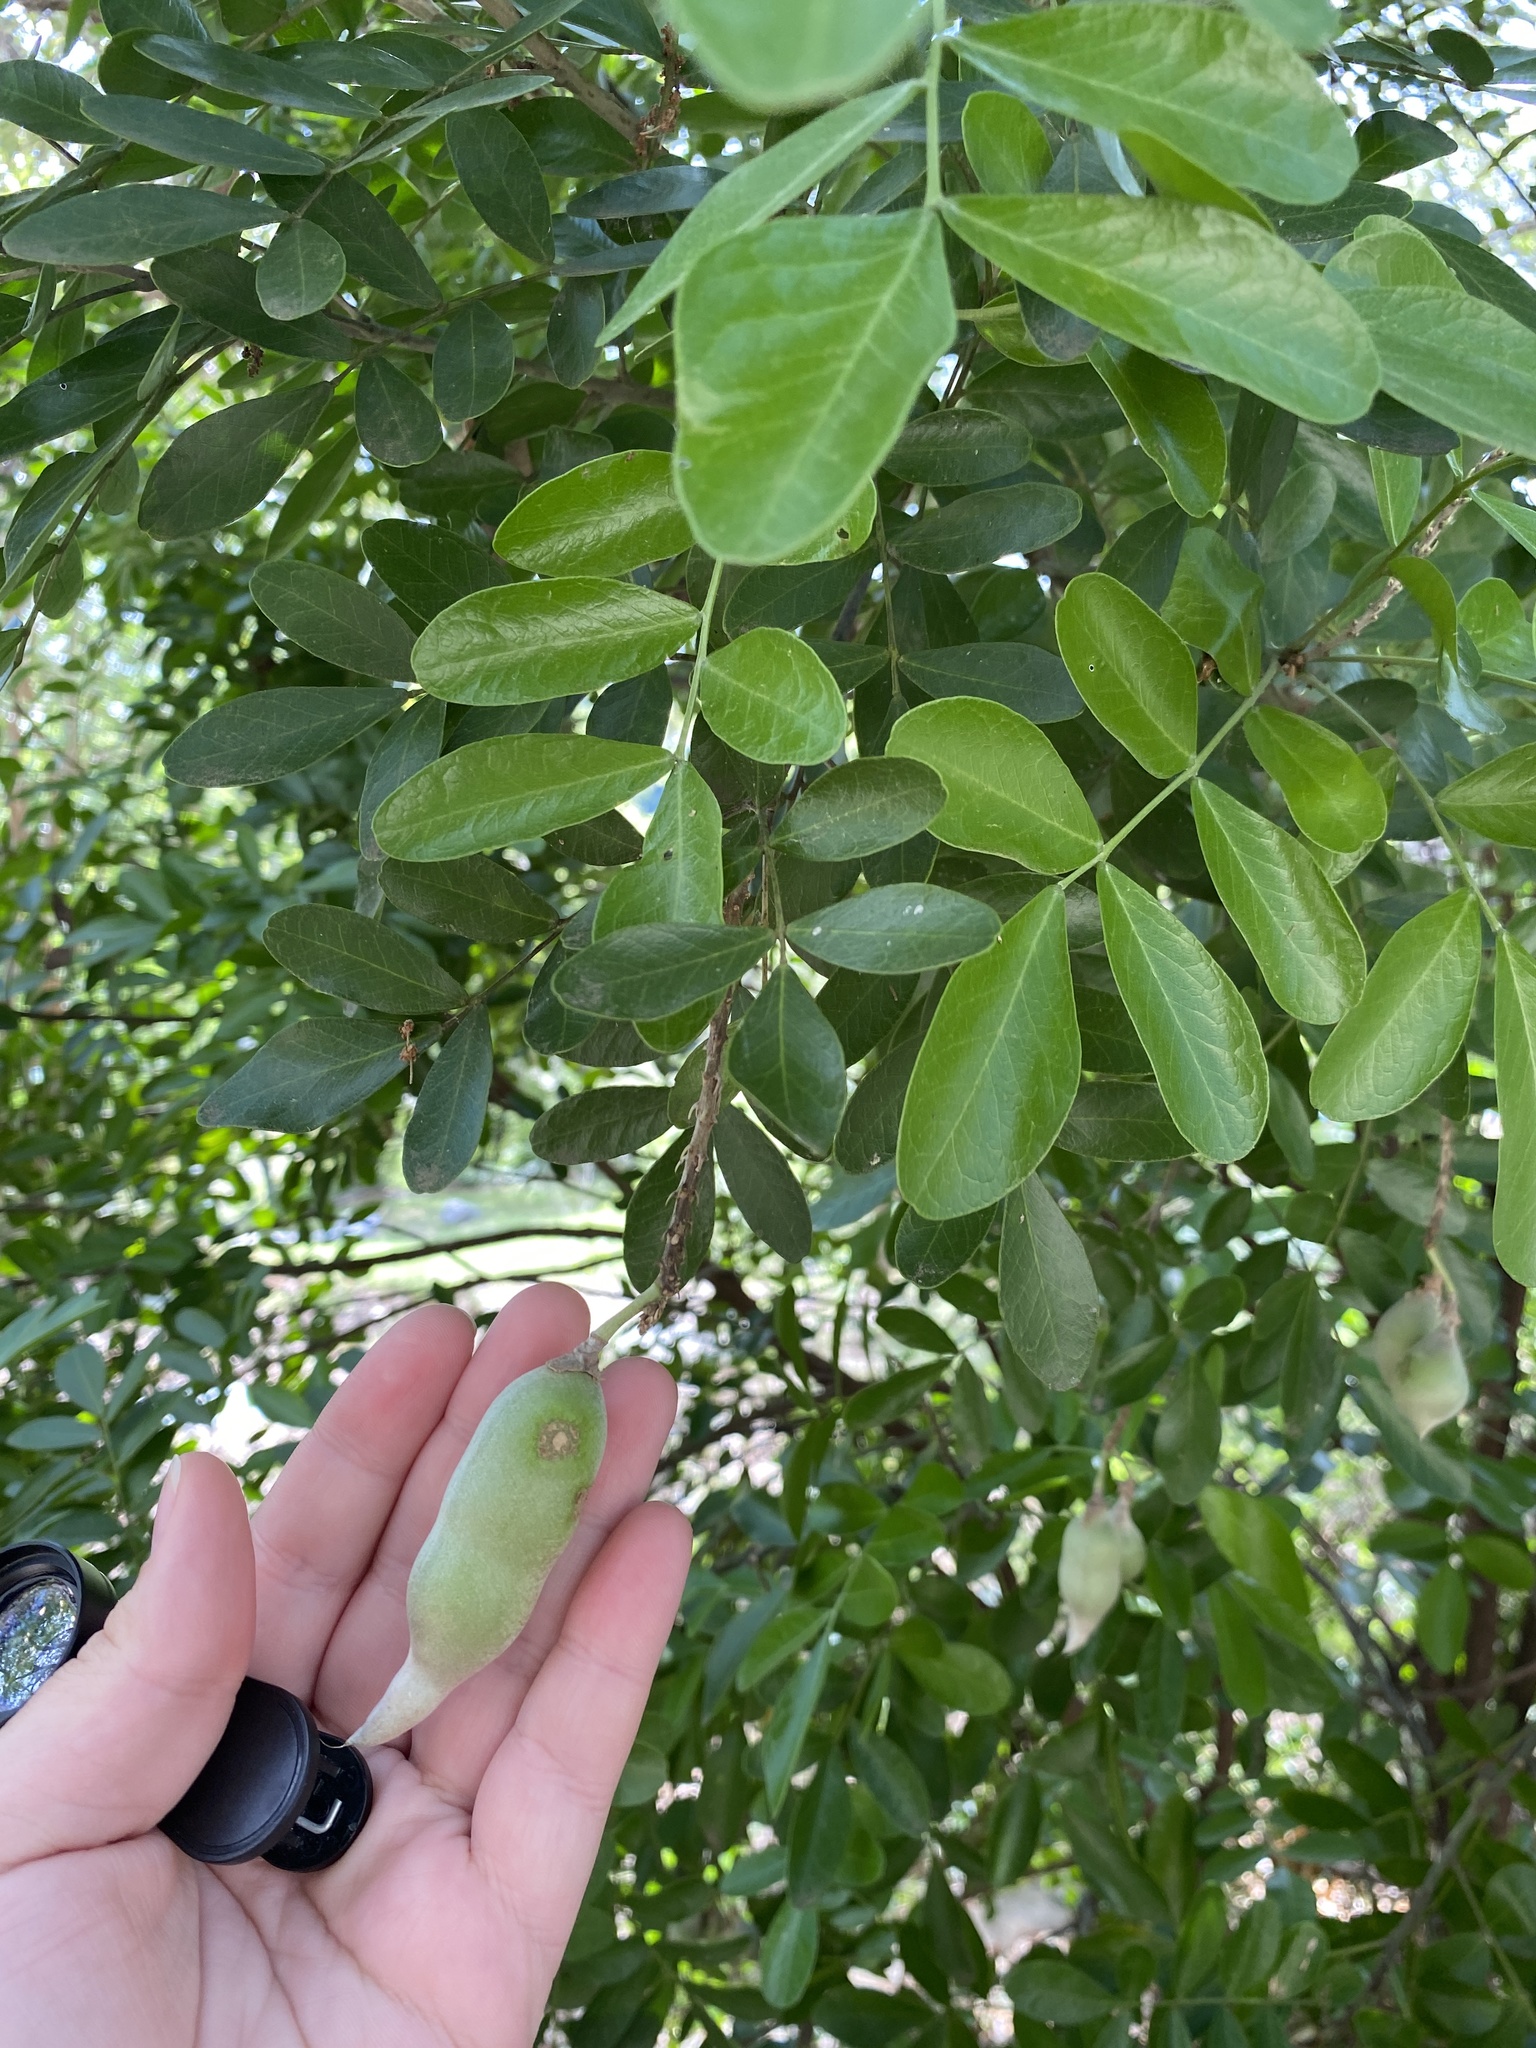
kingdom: Plantae
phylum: Tracheophyta
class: Magnoliopsida
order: Fabales
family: Fabaceae
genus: Dermatophyllum
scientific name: Dermatophyllum secundiflorum
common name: Texas-mountain-laurel
